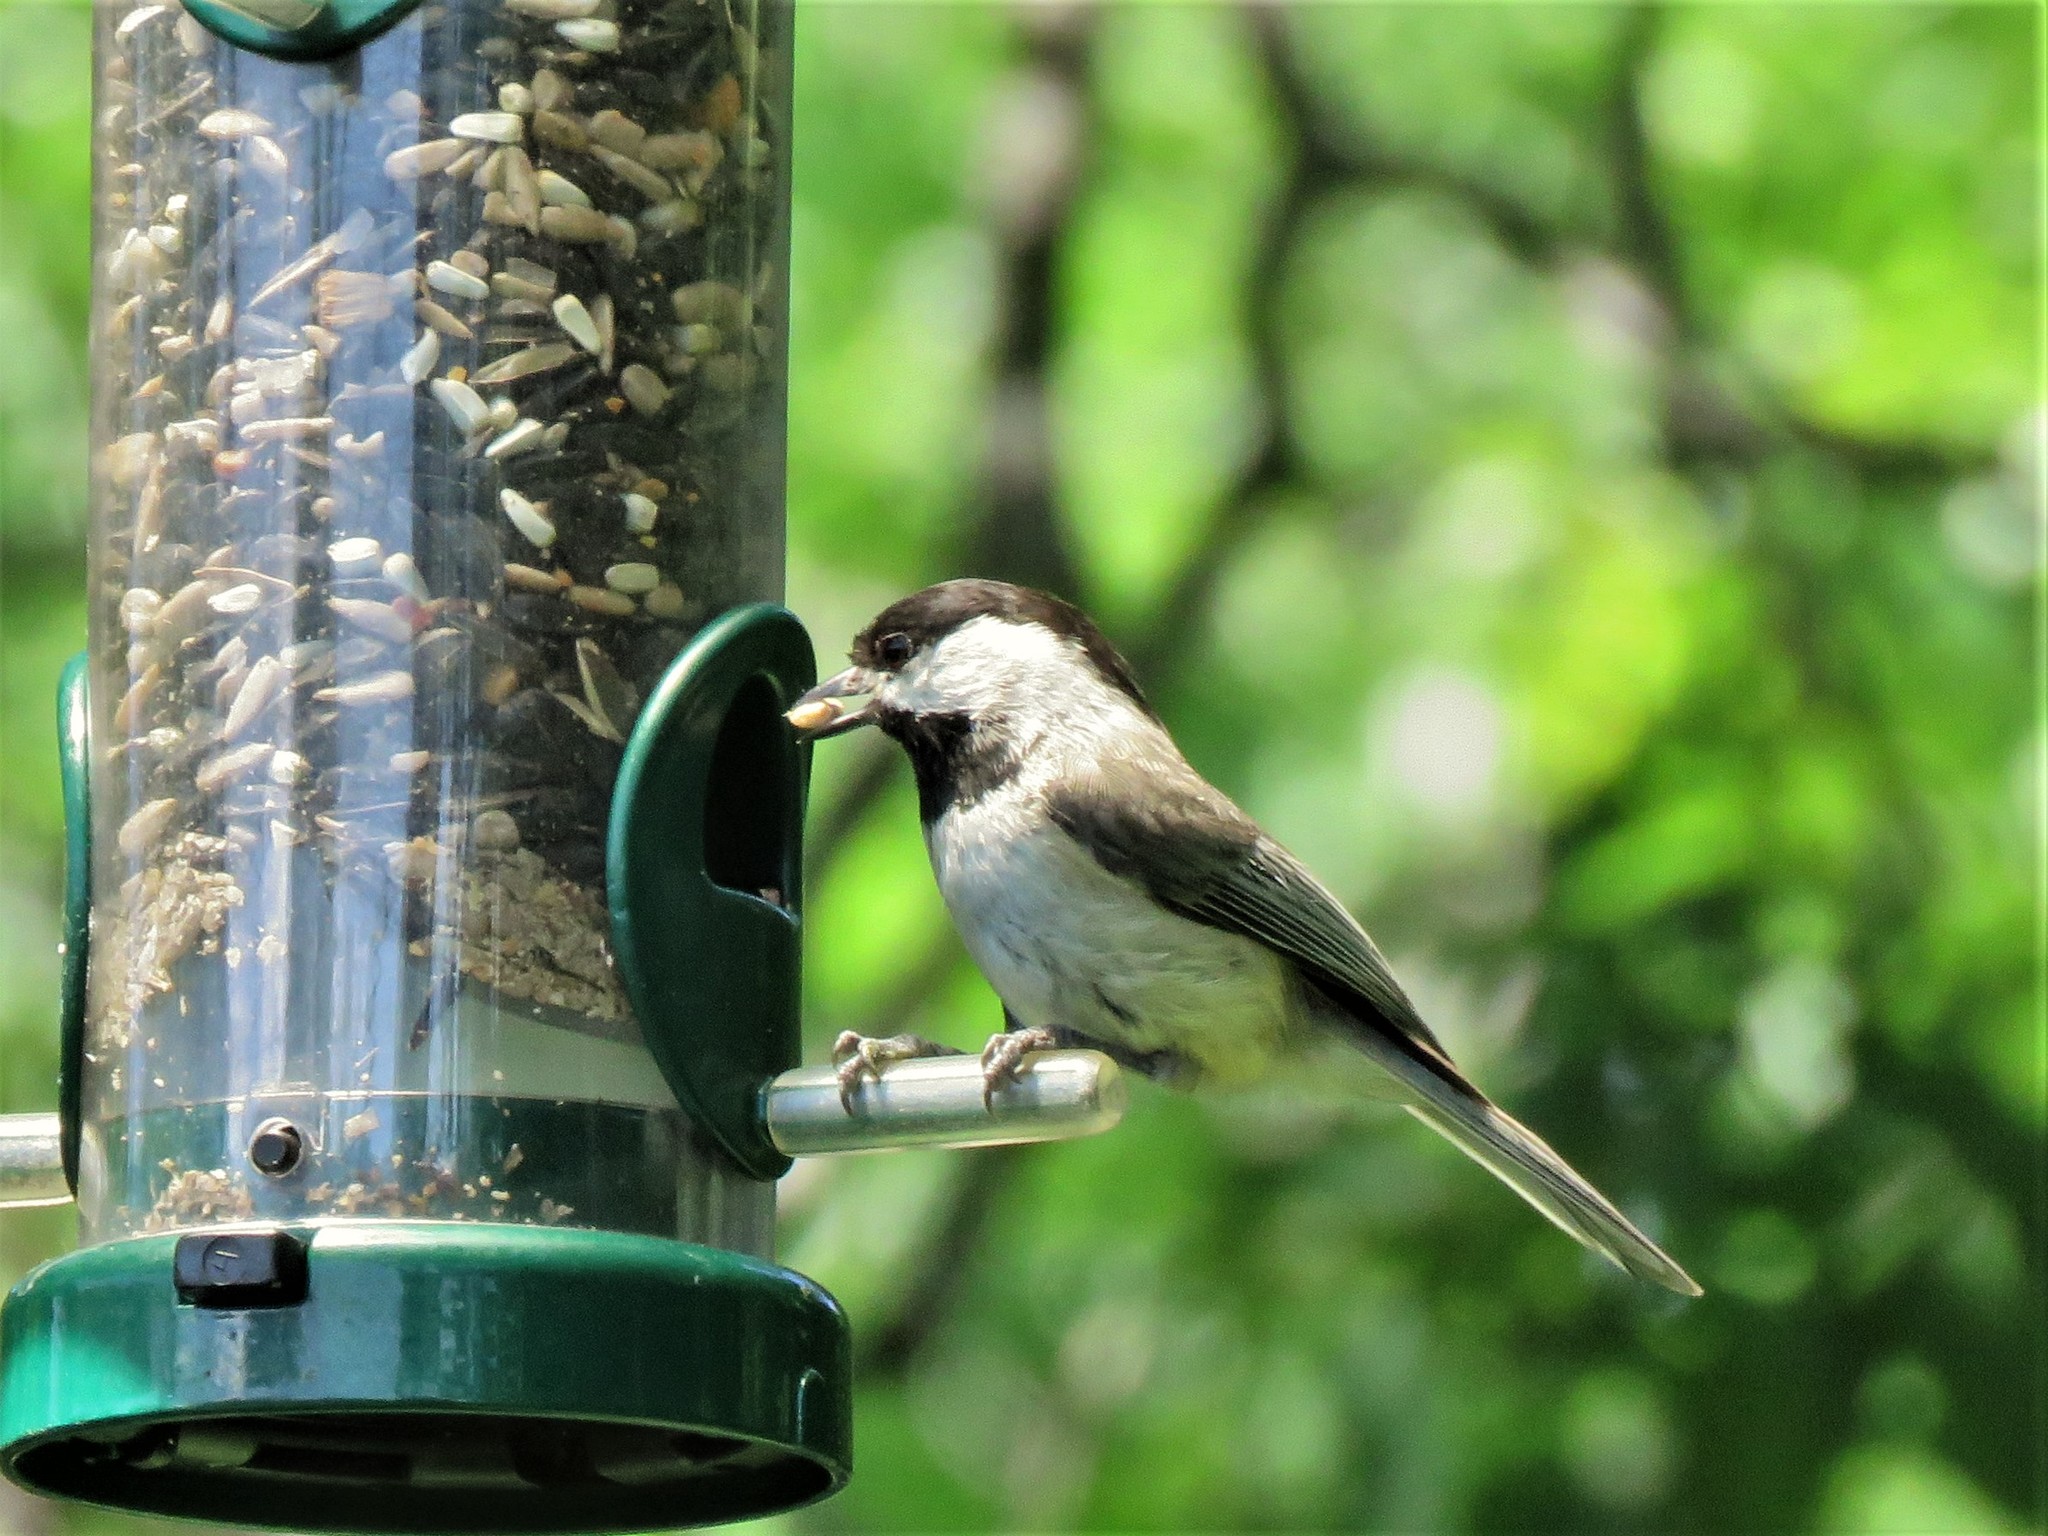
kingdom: Animalia
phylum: Chordata
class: Aves
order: Passeriformes
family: Paridae
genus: Poecile
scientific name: Poecile carolinensis
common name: Carolina chickadee
